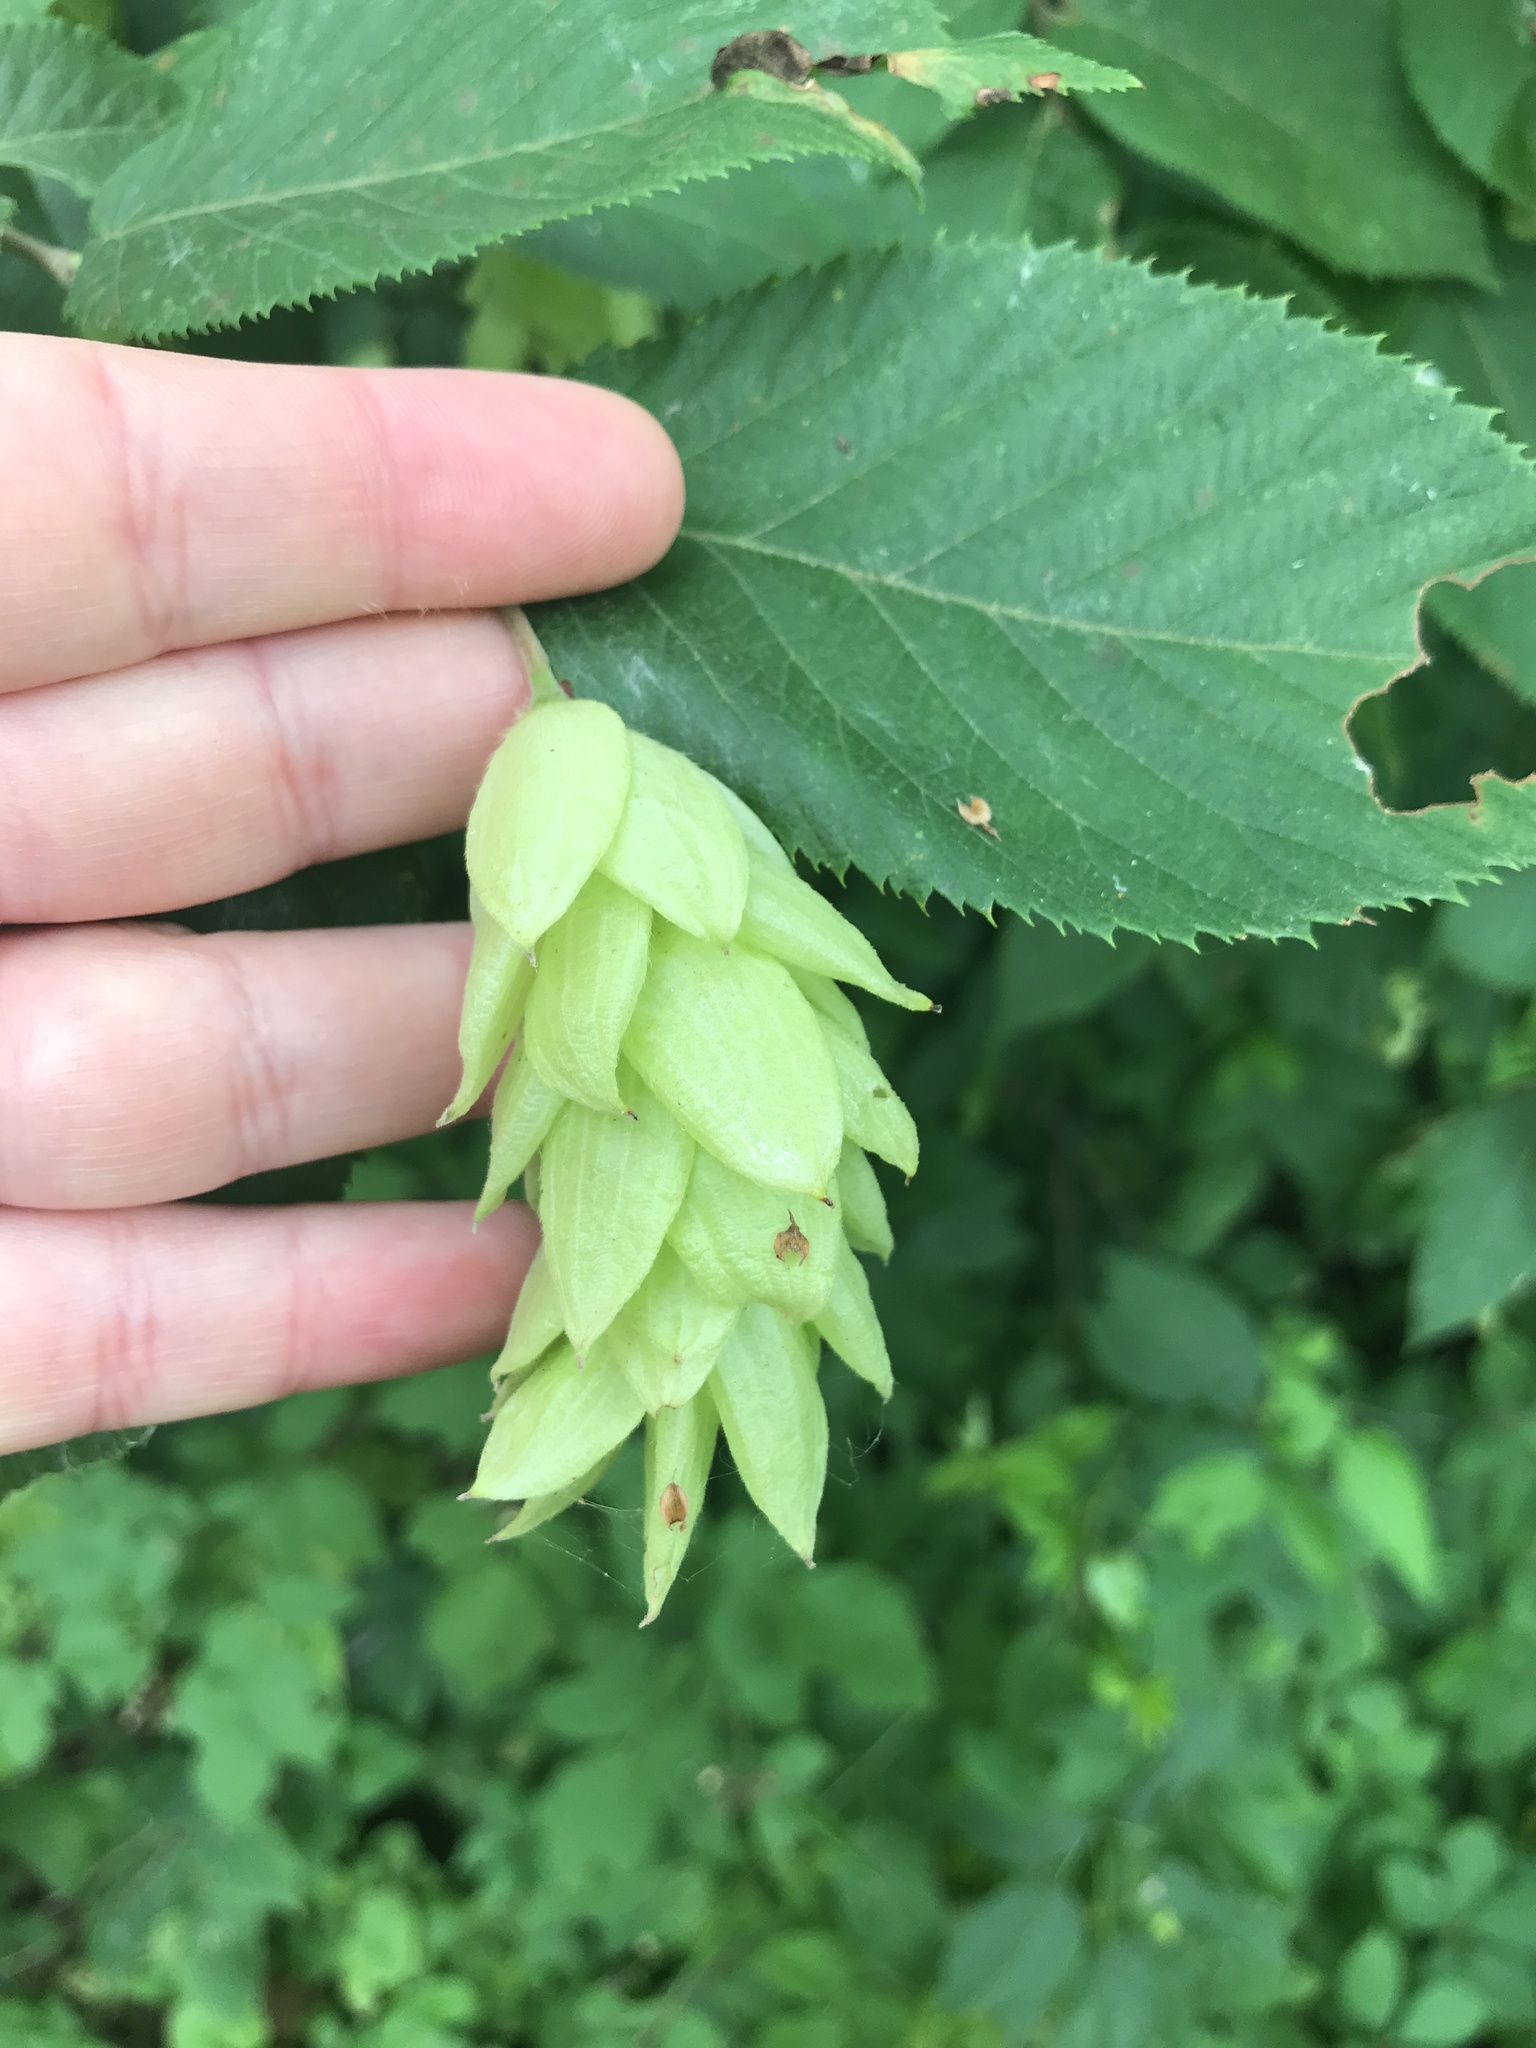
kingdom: Plantae
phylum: Tracheophyta
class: Magnoliopsida
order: Fagales
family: Betulaceae
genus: Ostrya
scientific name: Ostrya virginiana
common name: Ironwood
